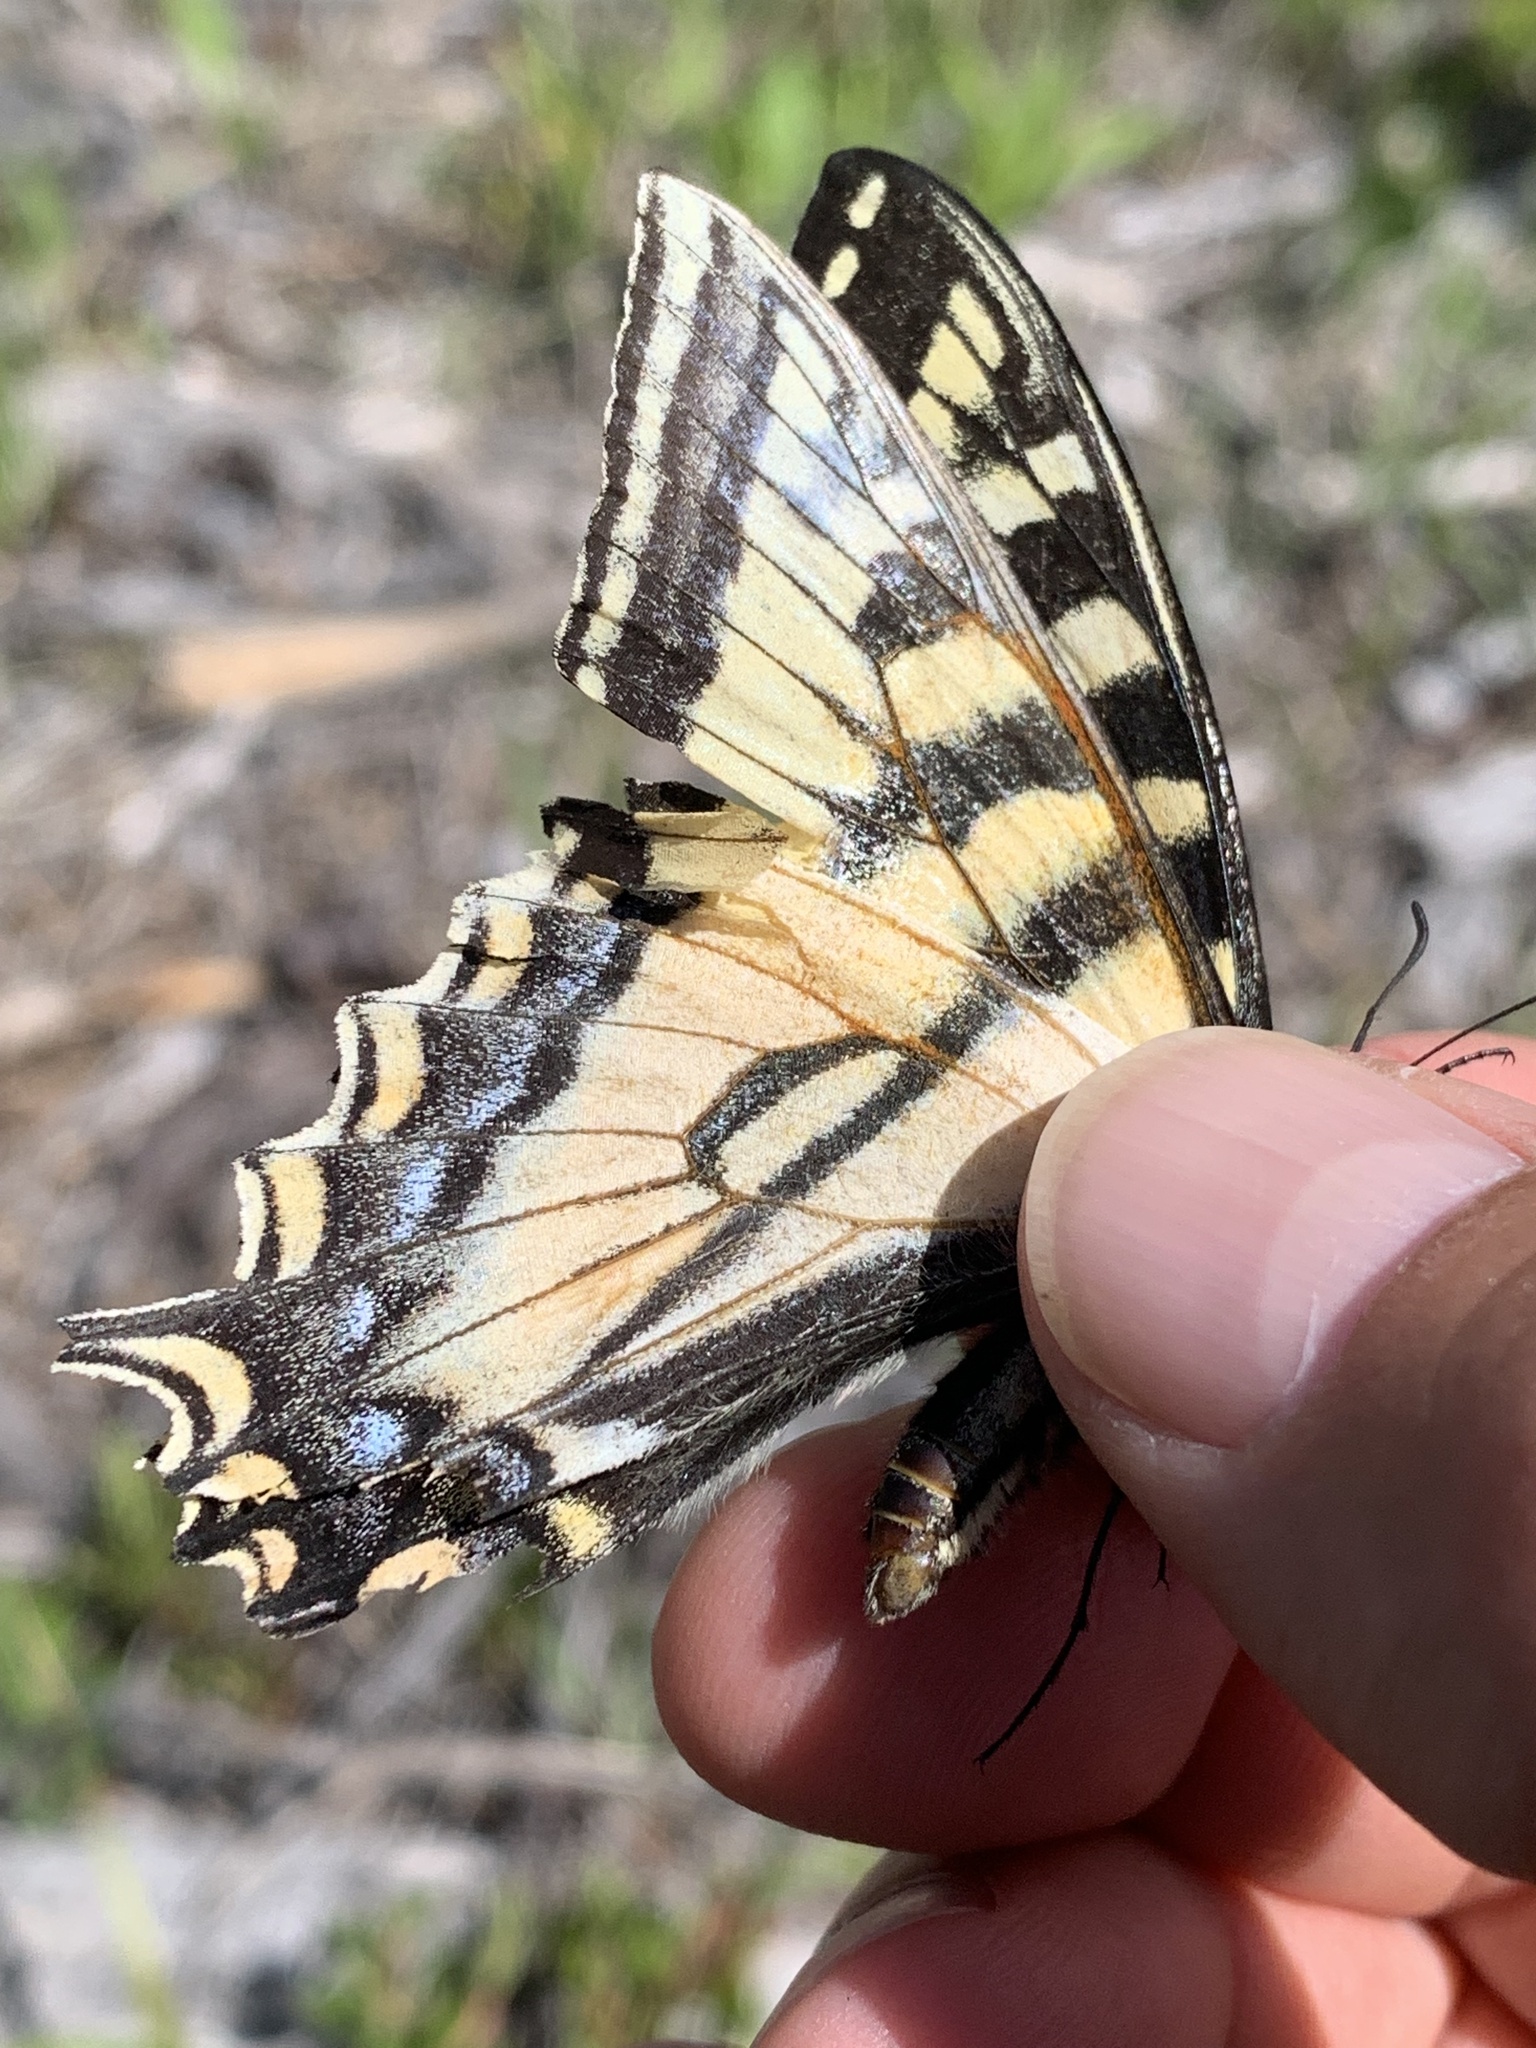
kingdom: Animalia
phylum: Arthropoda
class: Insecta
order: Lepidoptera
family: Papilionidae
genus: Papilio
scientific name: Papilio canadensis
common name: Canadian tiger swallowtail
